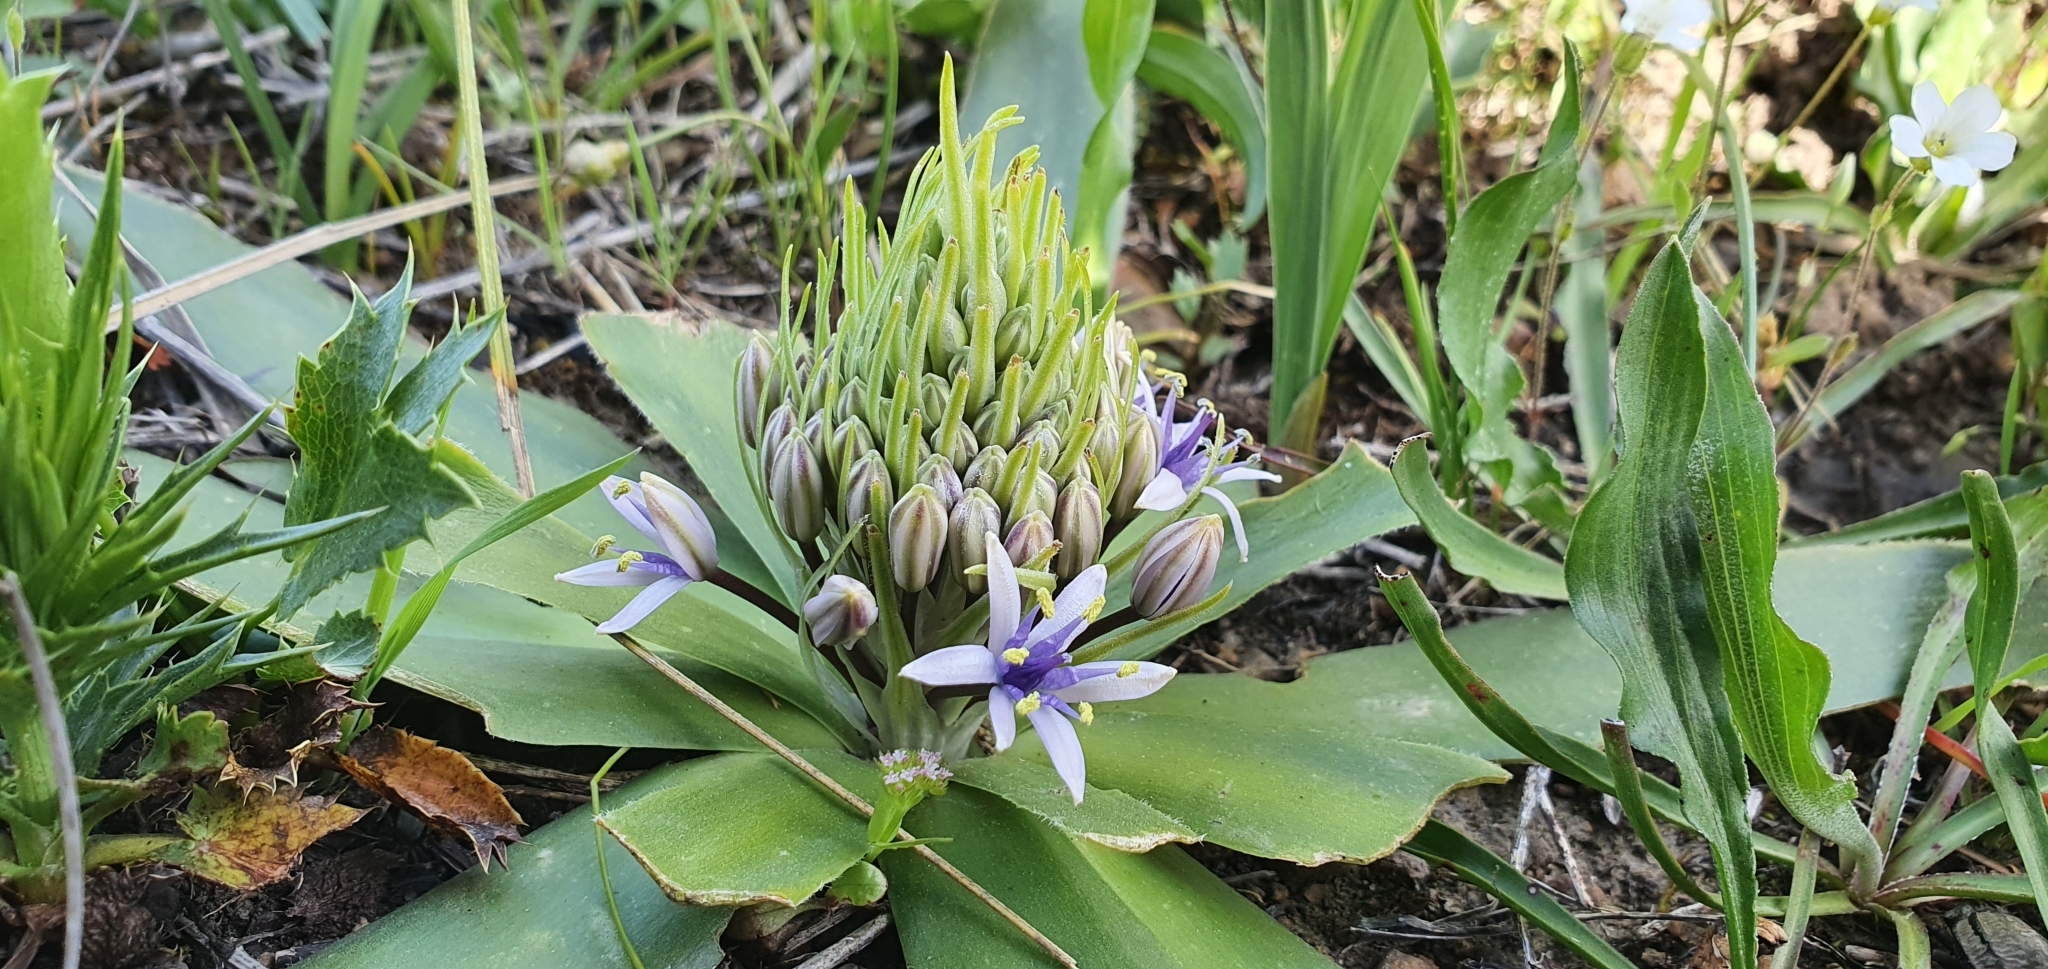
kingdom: Plantae
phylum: Tracheophyta
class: Liliopsida
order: Asparagales
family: Asparagaceae
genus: Scilla
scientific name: Scilla peruviana
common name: Portuguese squill
